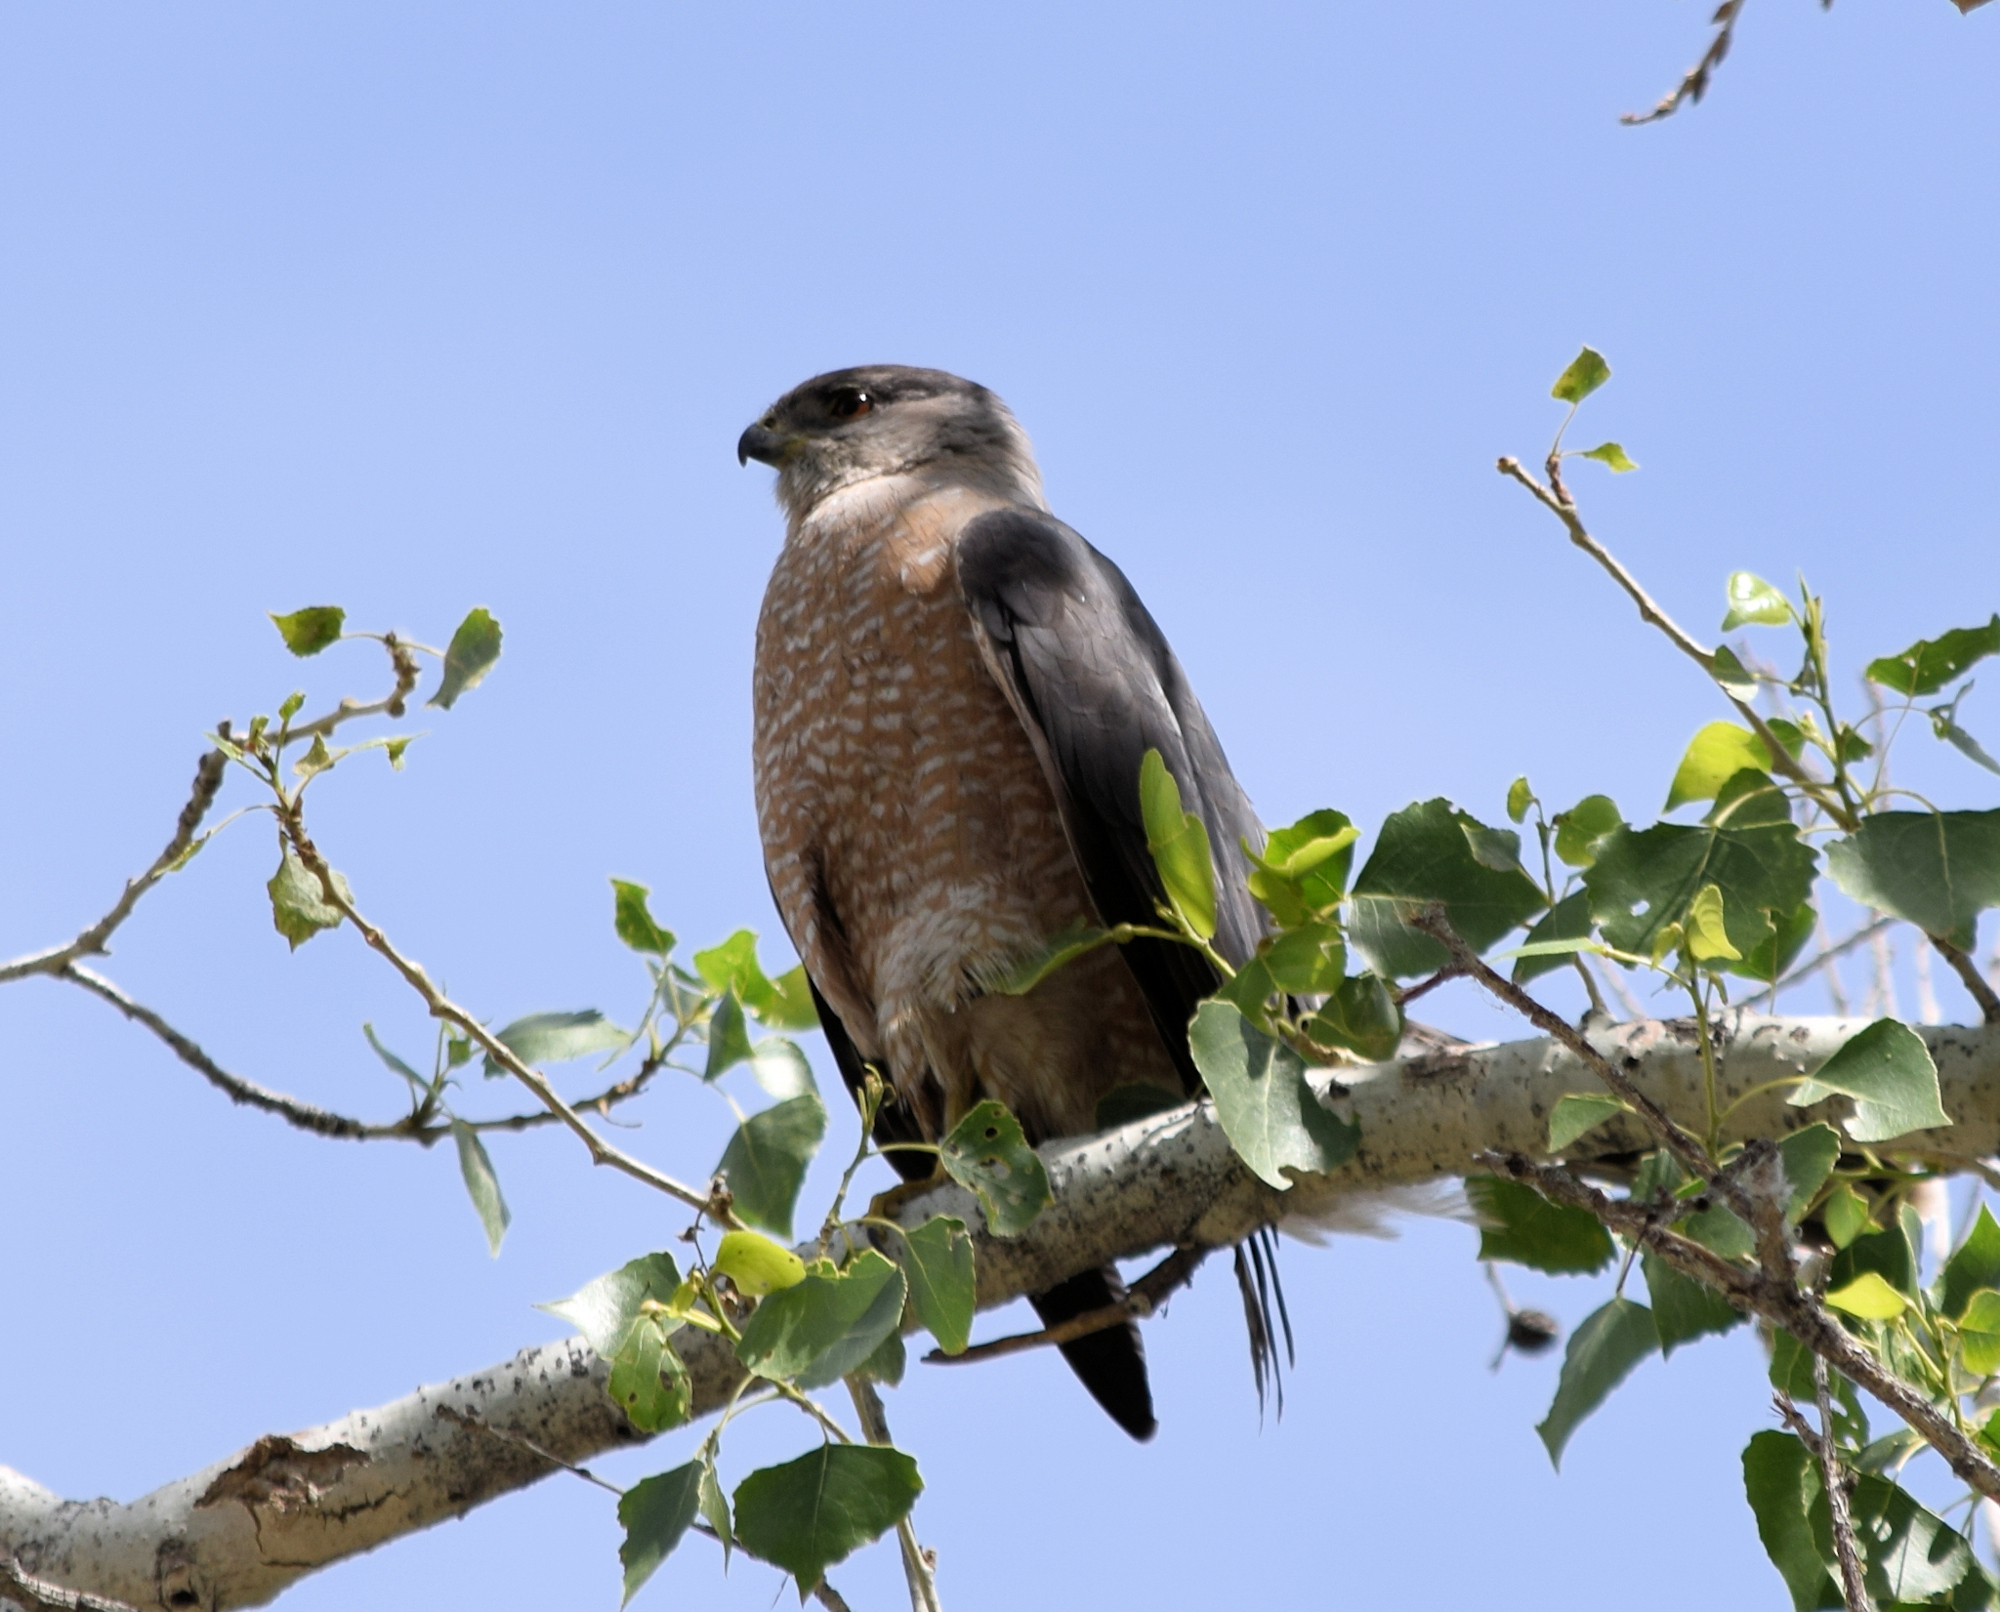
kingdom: Animalia
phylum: Chordata
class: Aves
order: Accipitriformes
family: Accipitridae
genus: Accipiter
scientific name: Accipiter cooperii
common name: Cooper's hawk
